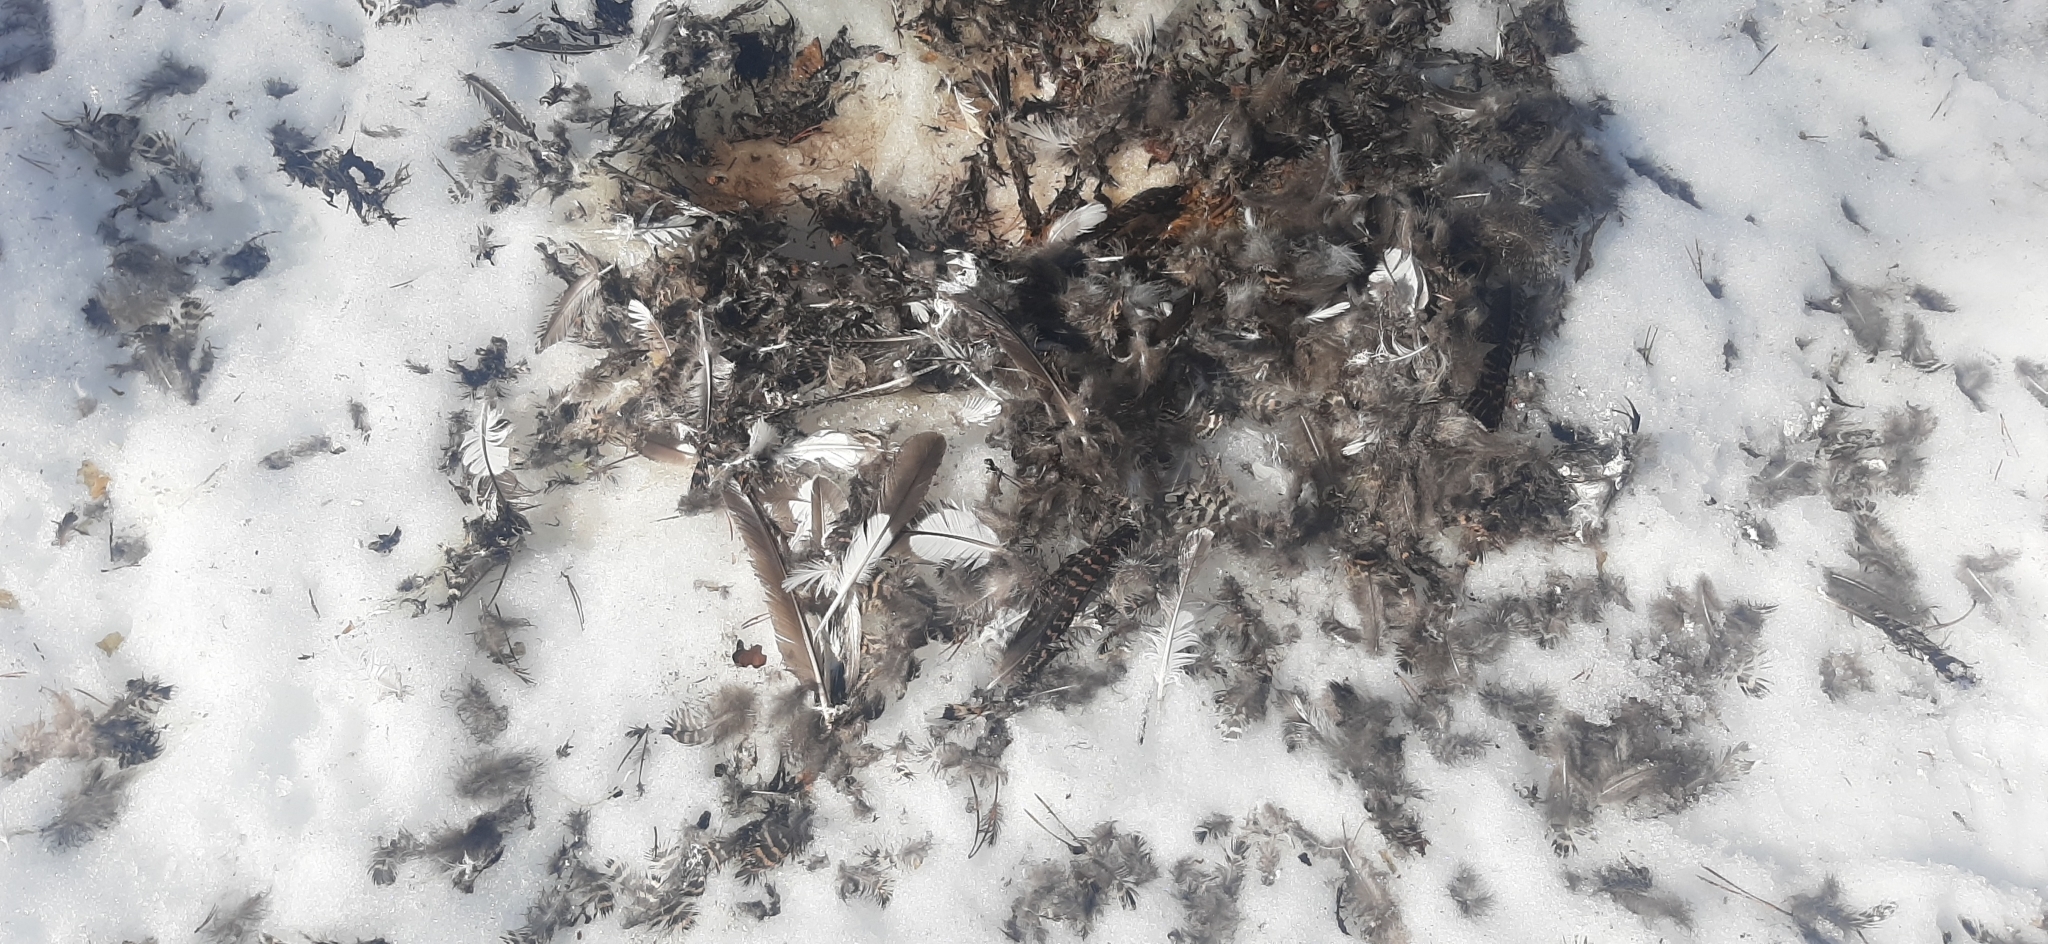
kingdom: Animalia
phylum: Chordata
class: Aves
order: Galliformes
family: Phasianidae
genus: Lyrurus
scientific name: Lyrurus tetrix
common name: Black grouse
